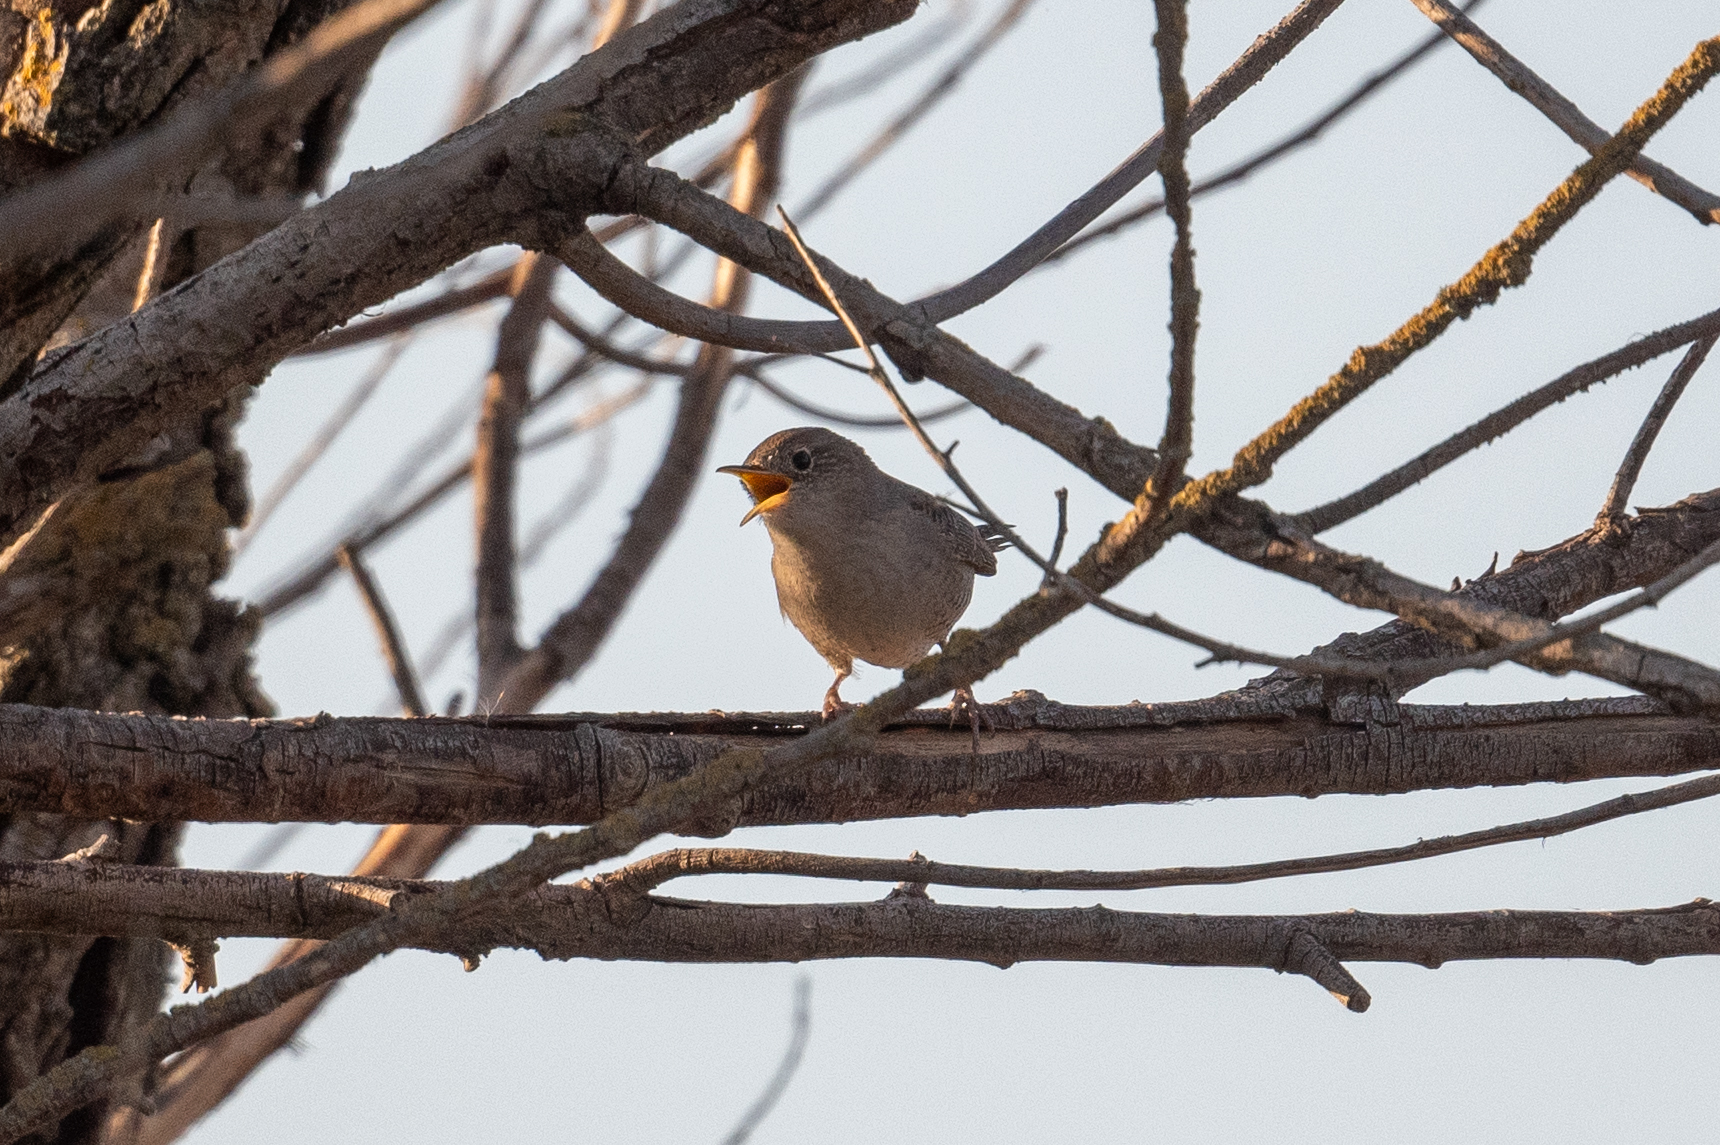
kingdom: Animalia
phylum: Chordata
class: Aves
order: Passeriformes
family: Troglodytidae
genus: Troglodytes
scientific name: Troglodytes aedon
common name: House wren
